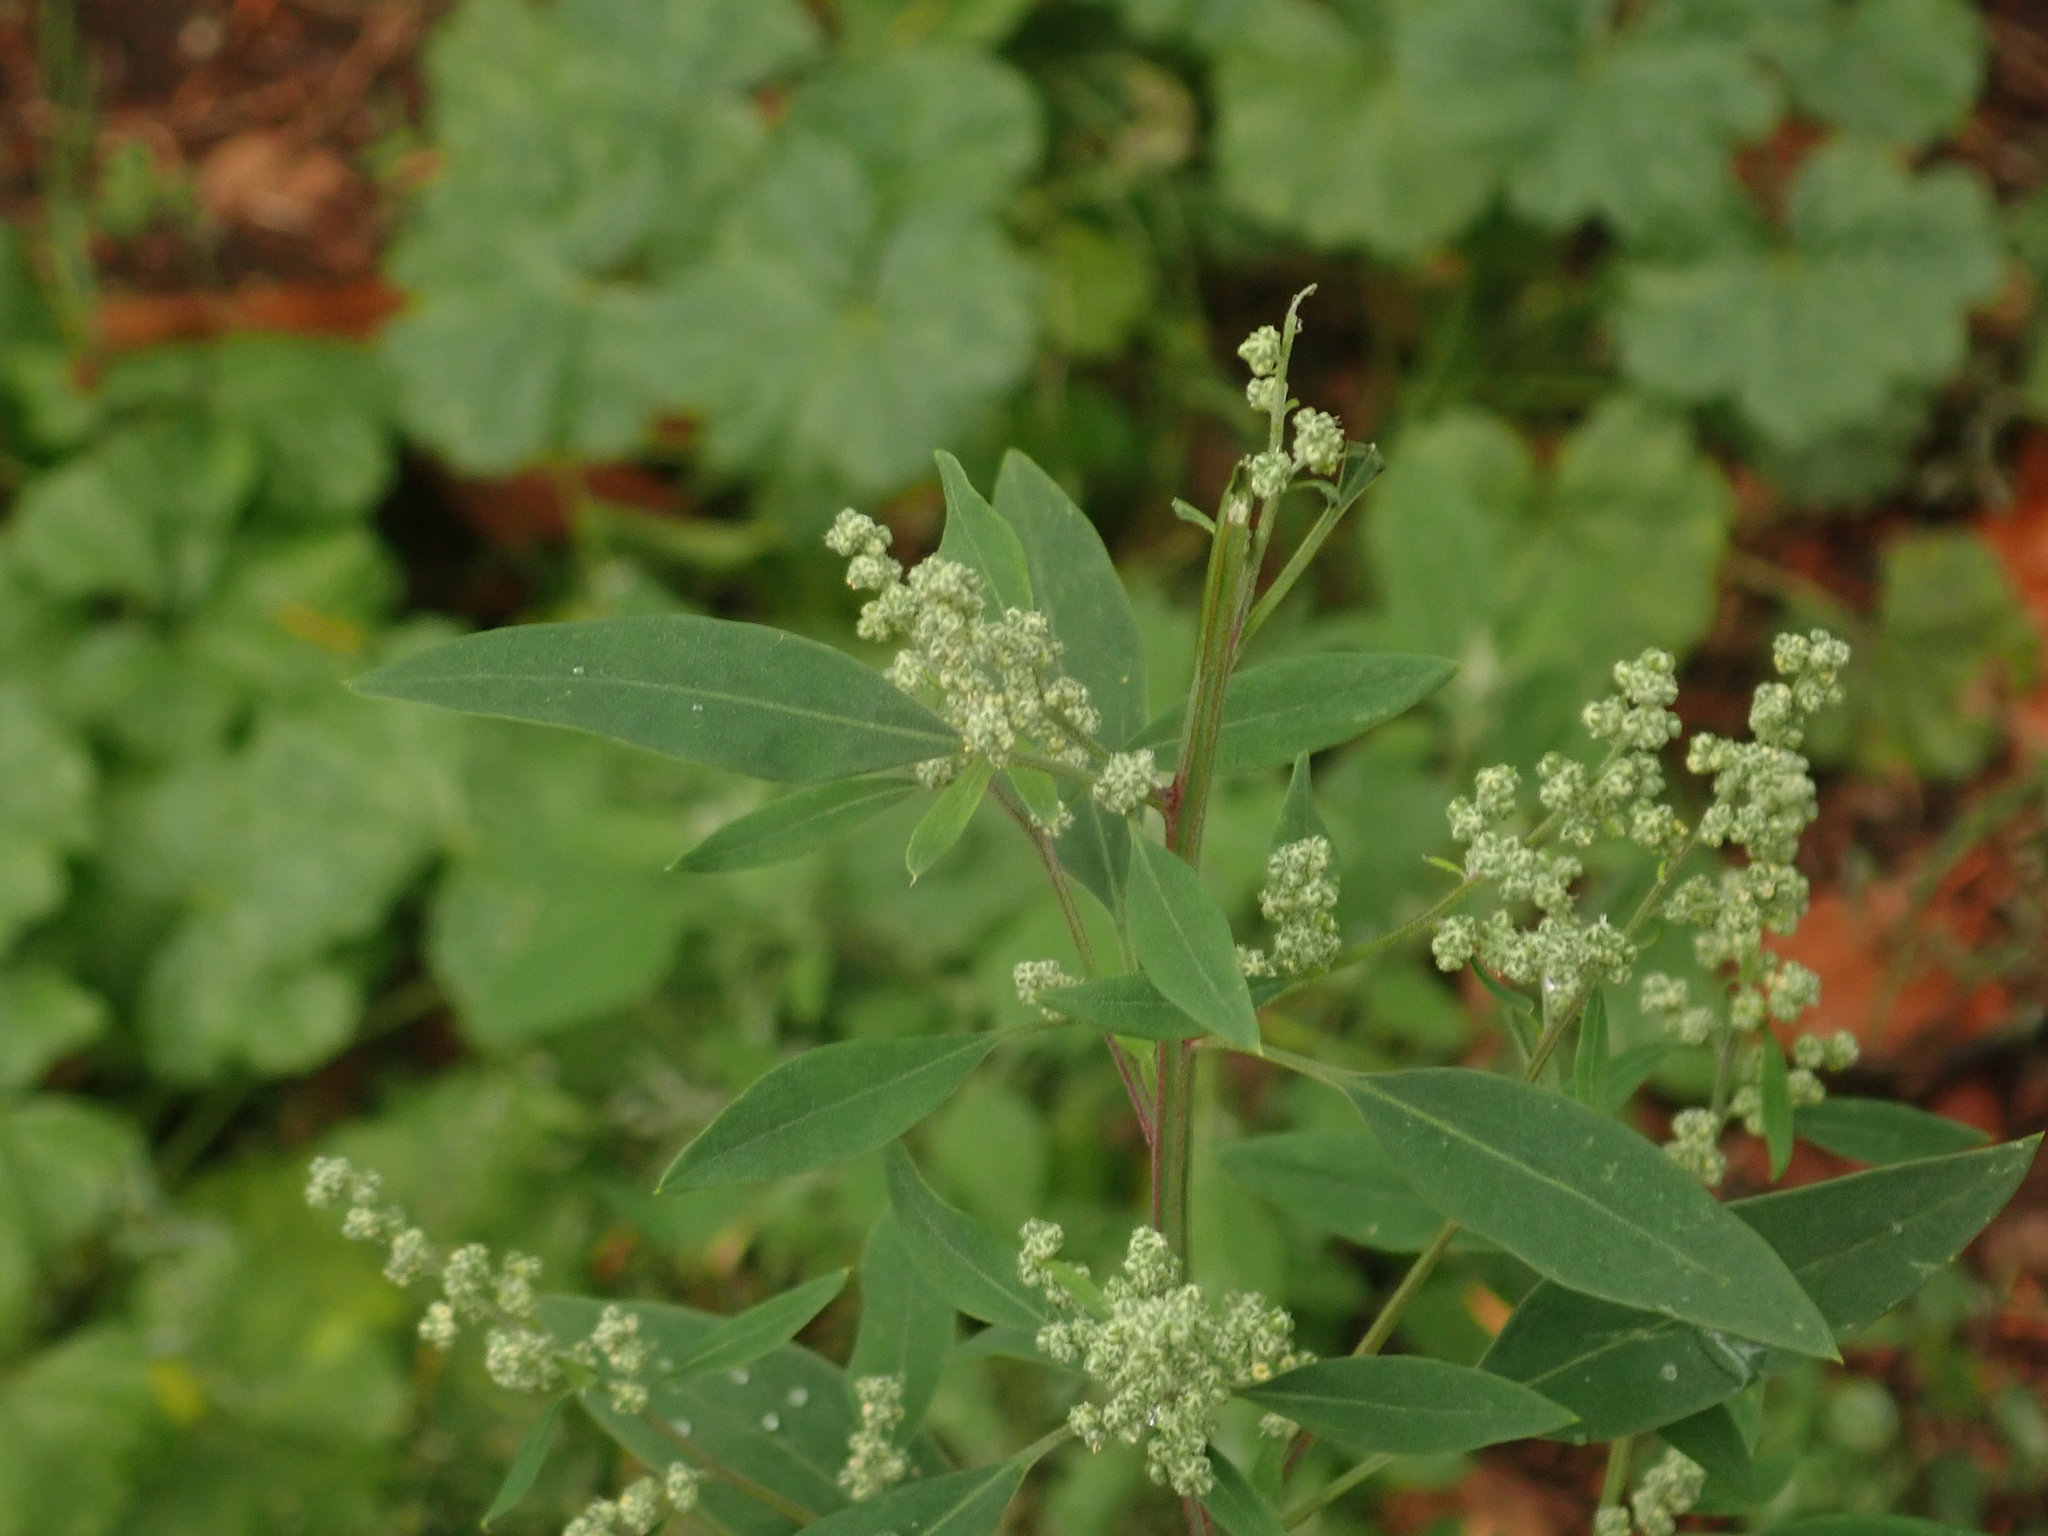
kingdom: Plantae
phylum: Tracheophyta
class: Magnoliopsida
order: Caryophyllales
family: Amaranthaceae
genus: Chenopodium
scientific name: Chenopodium album
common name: Fat-hen
